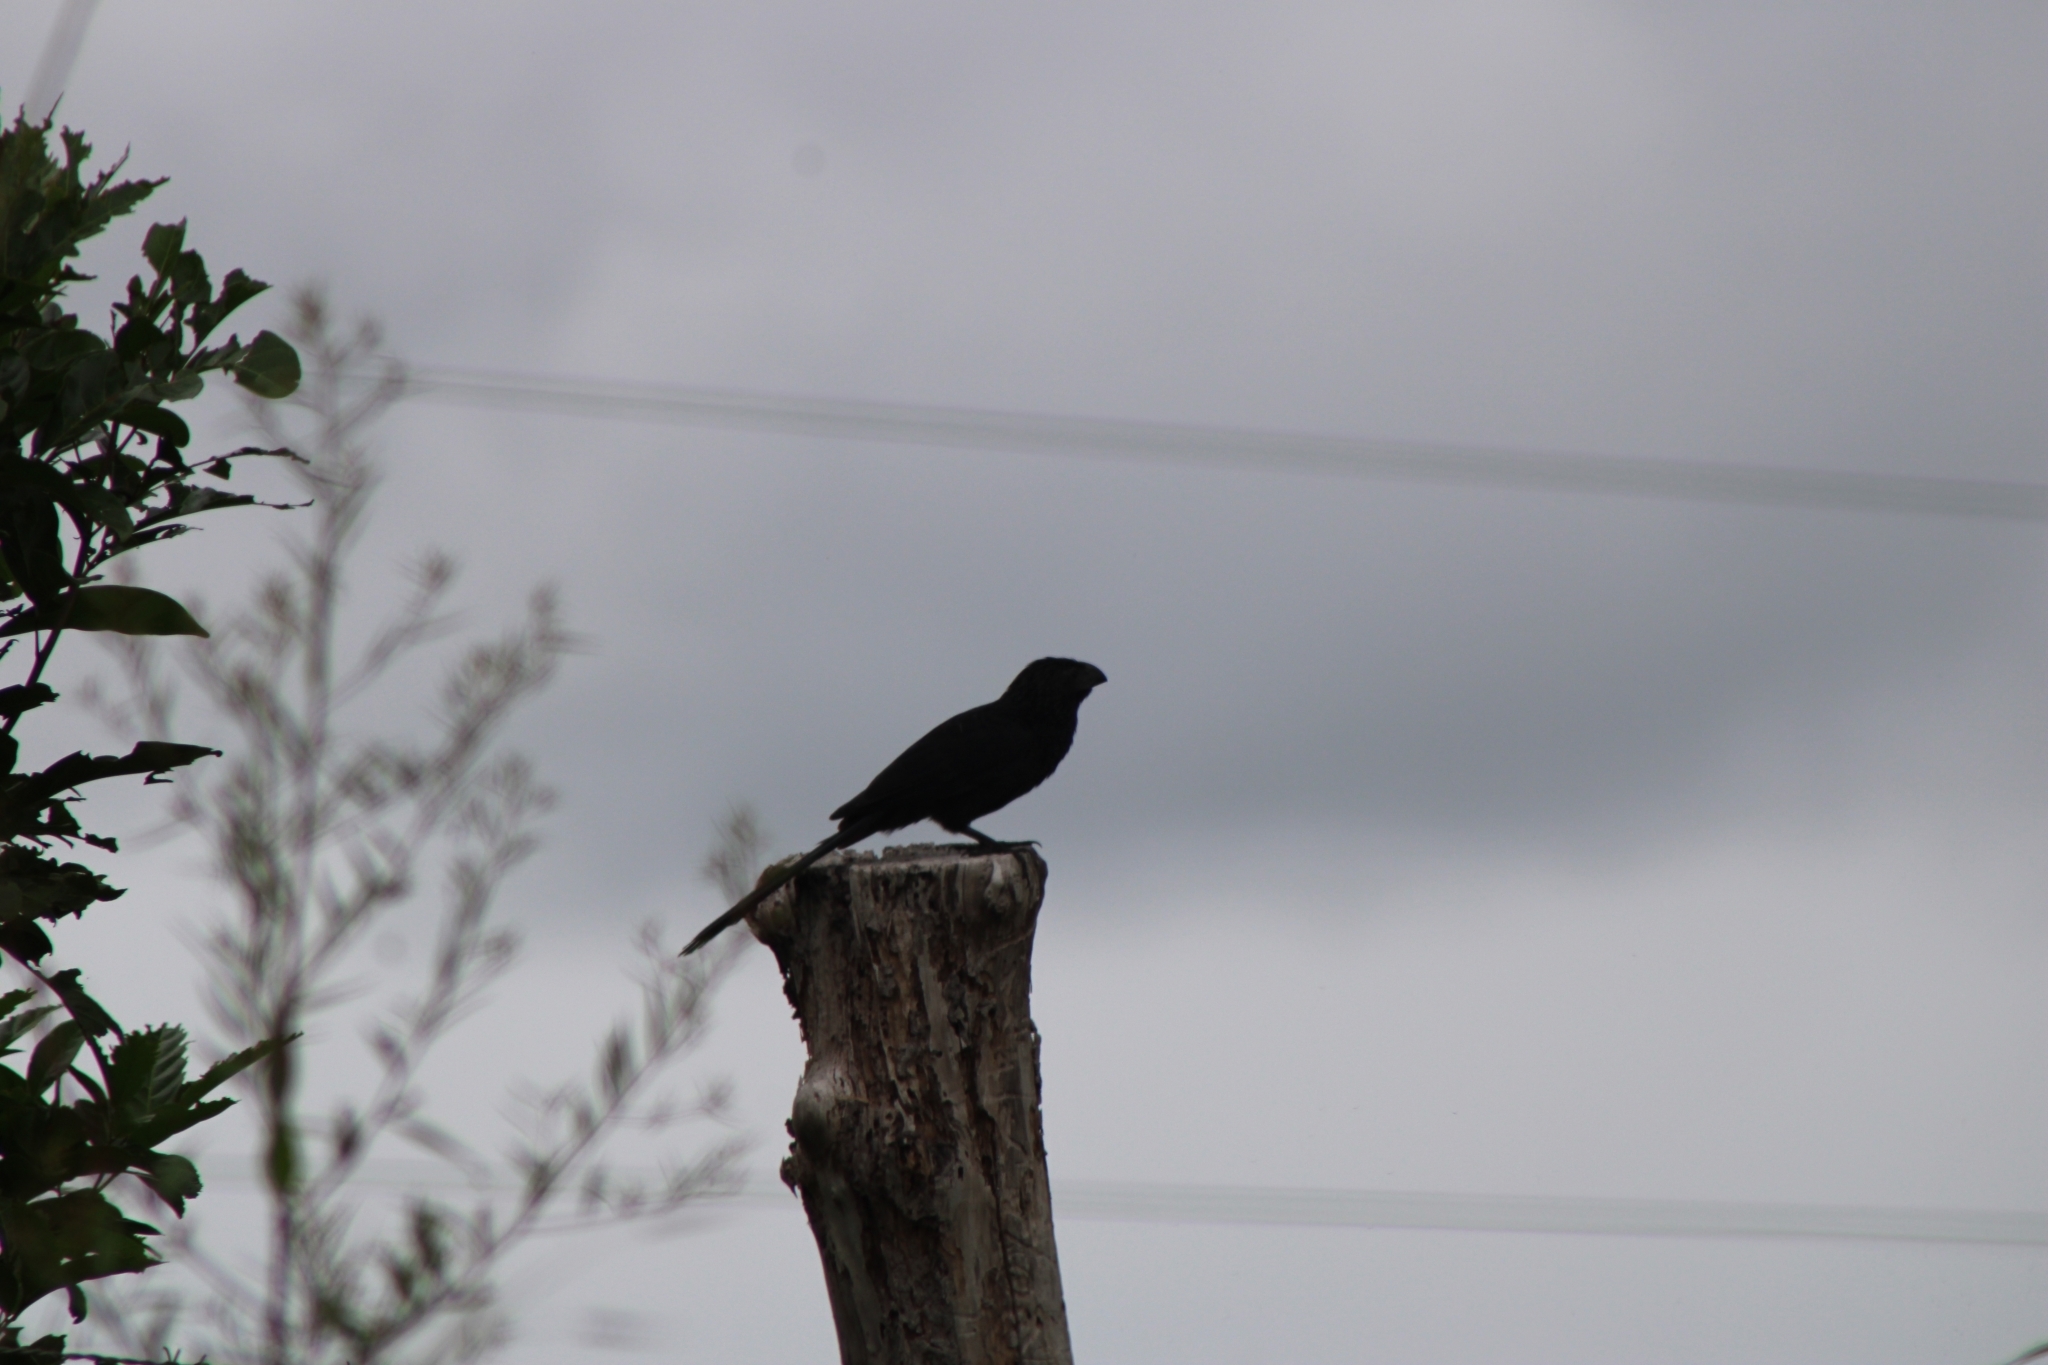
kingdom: Animalia
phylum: Chordata
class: Aves
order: Cuculiformes
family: Cuculidae
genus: Crotophaga
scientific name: Crotophaga sulcirostris
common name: Groove-billed ani
